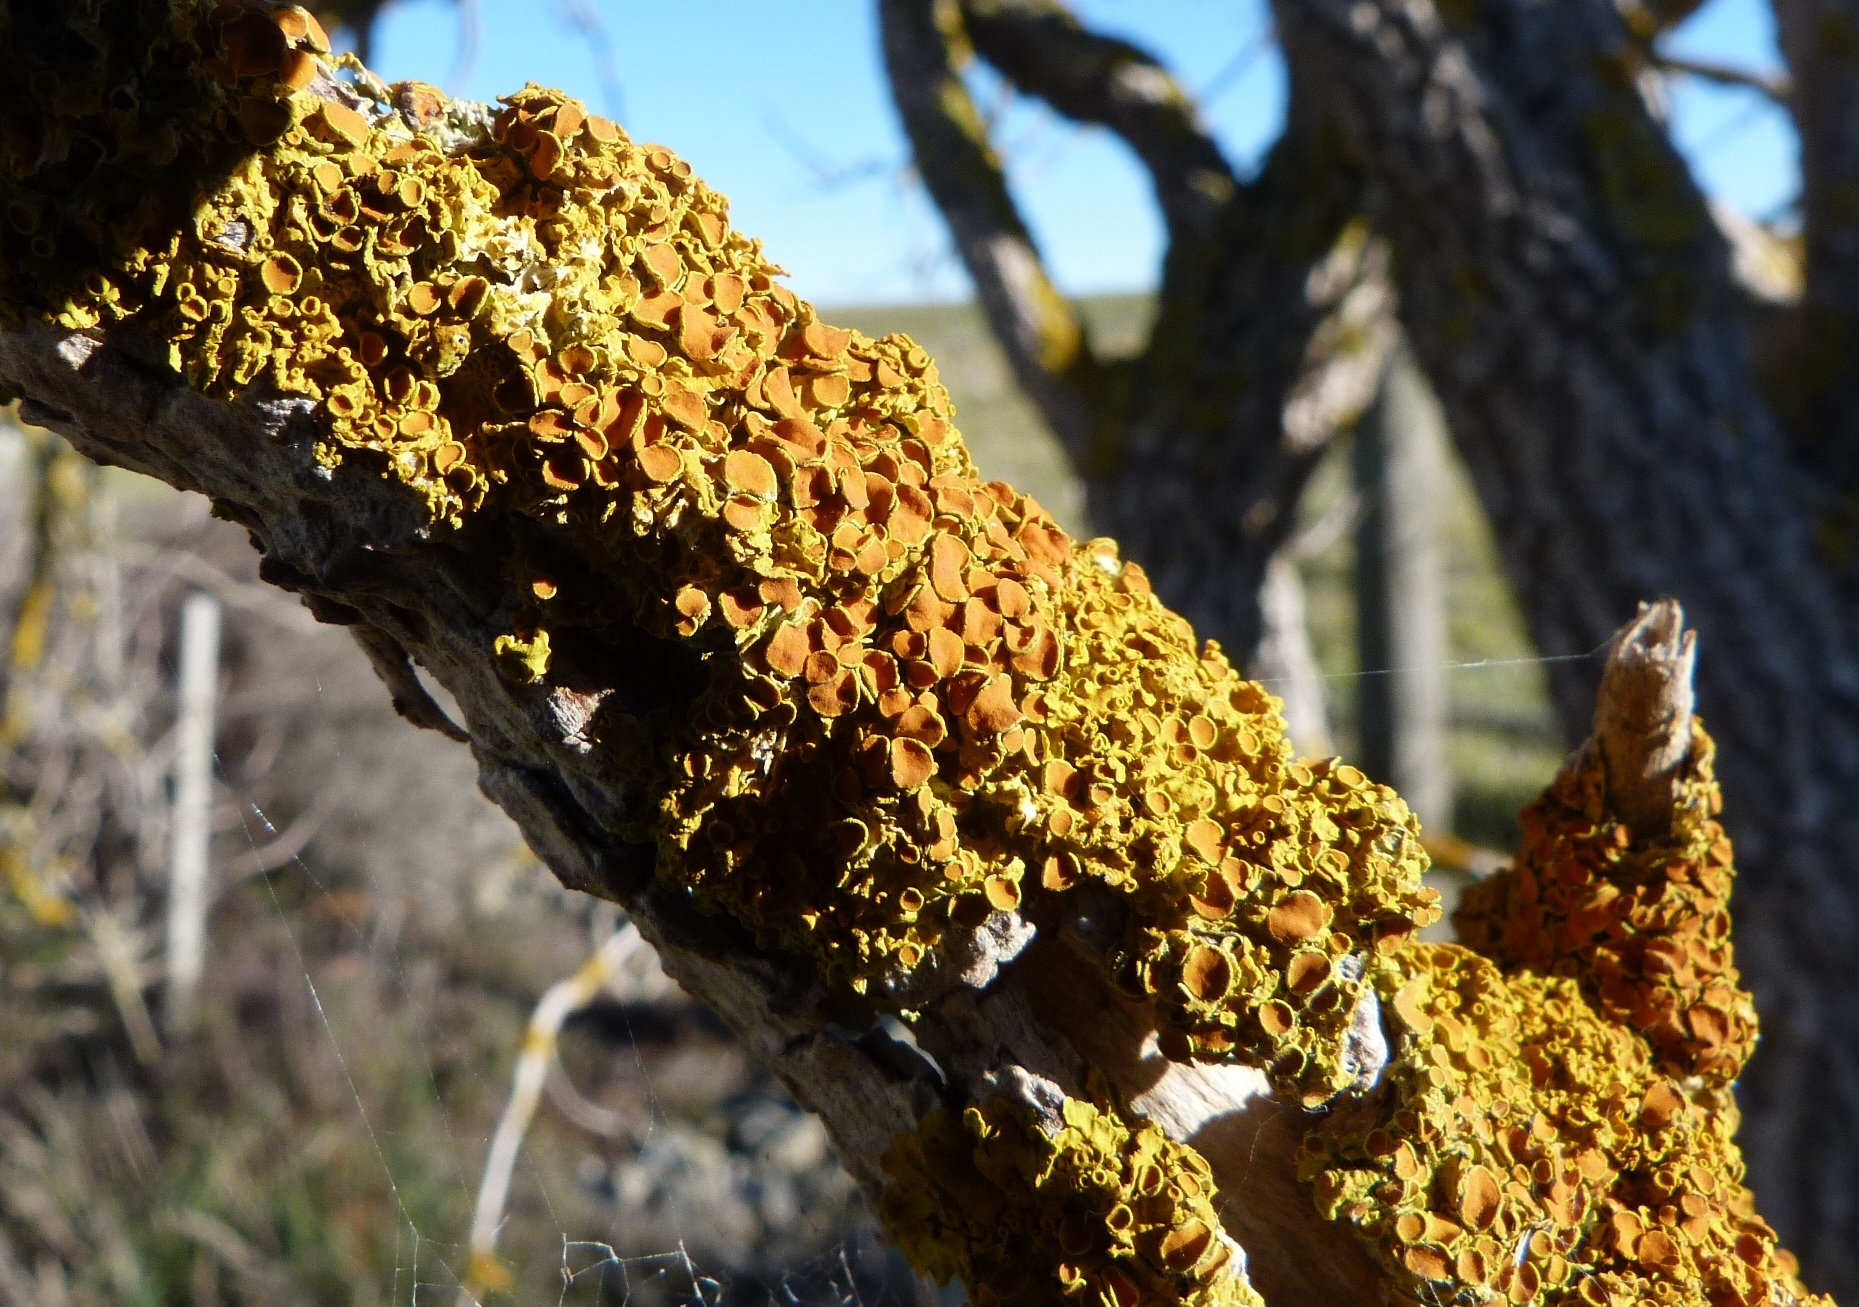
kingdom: Fungi
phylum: Ascomycota
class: Lecanoromycetes
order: Teloschistales
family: Teloschistaceae
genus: Xanthoria
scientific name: Xanthoria parietina
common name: Common orange lichen
